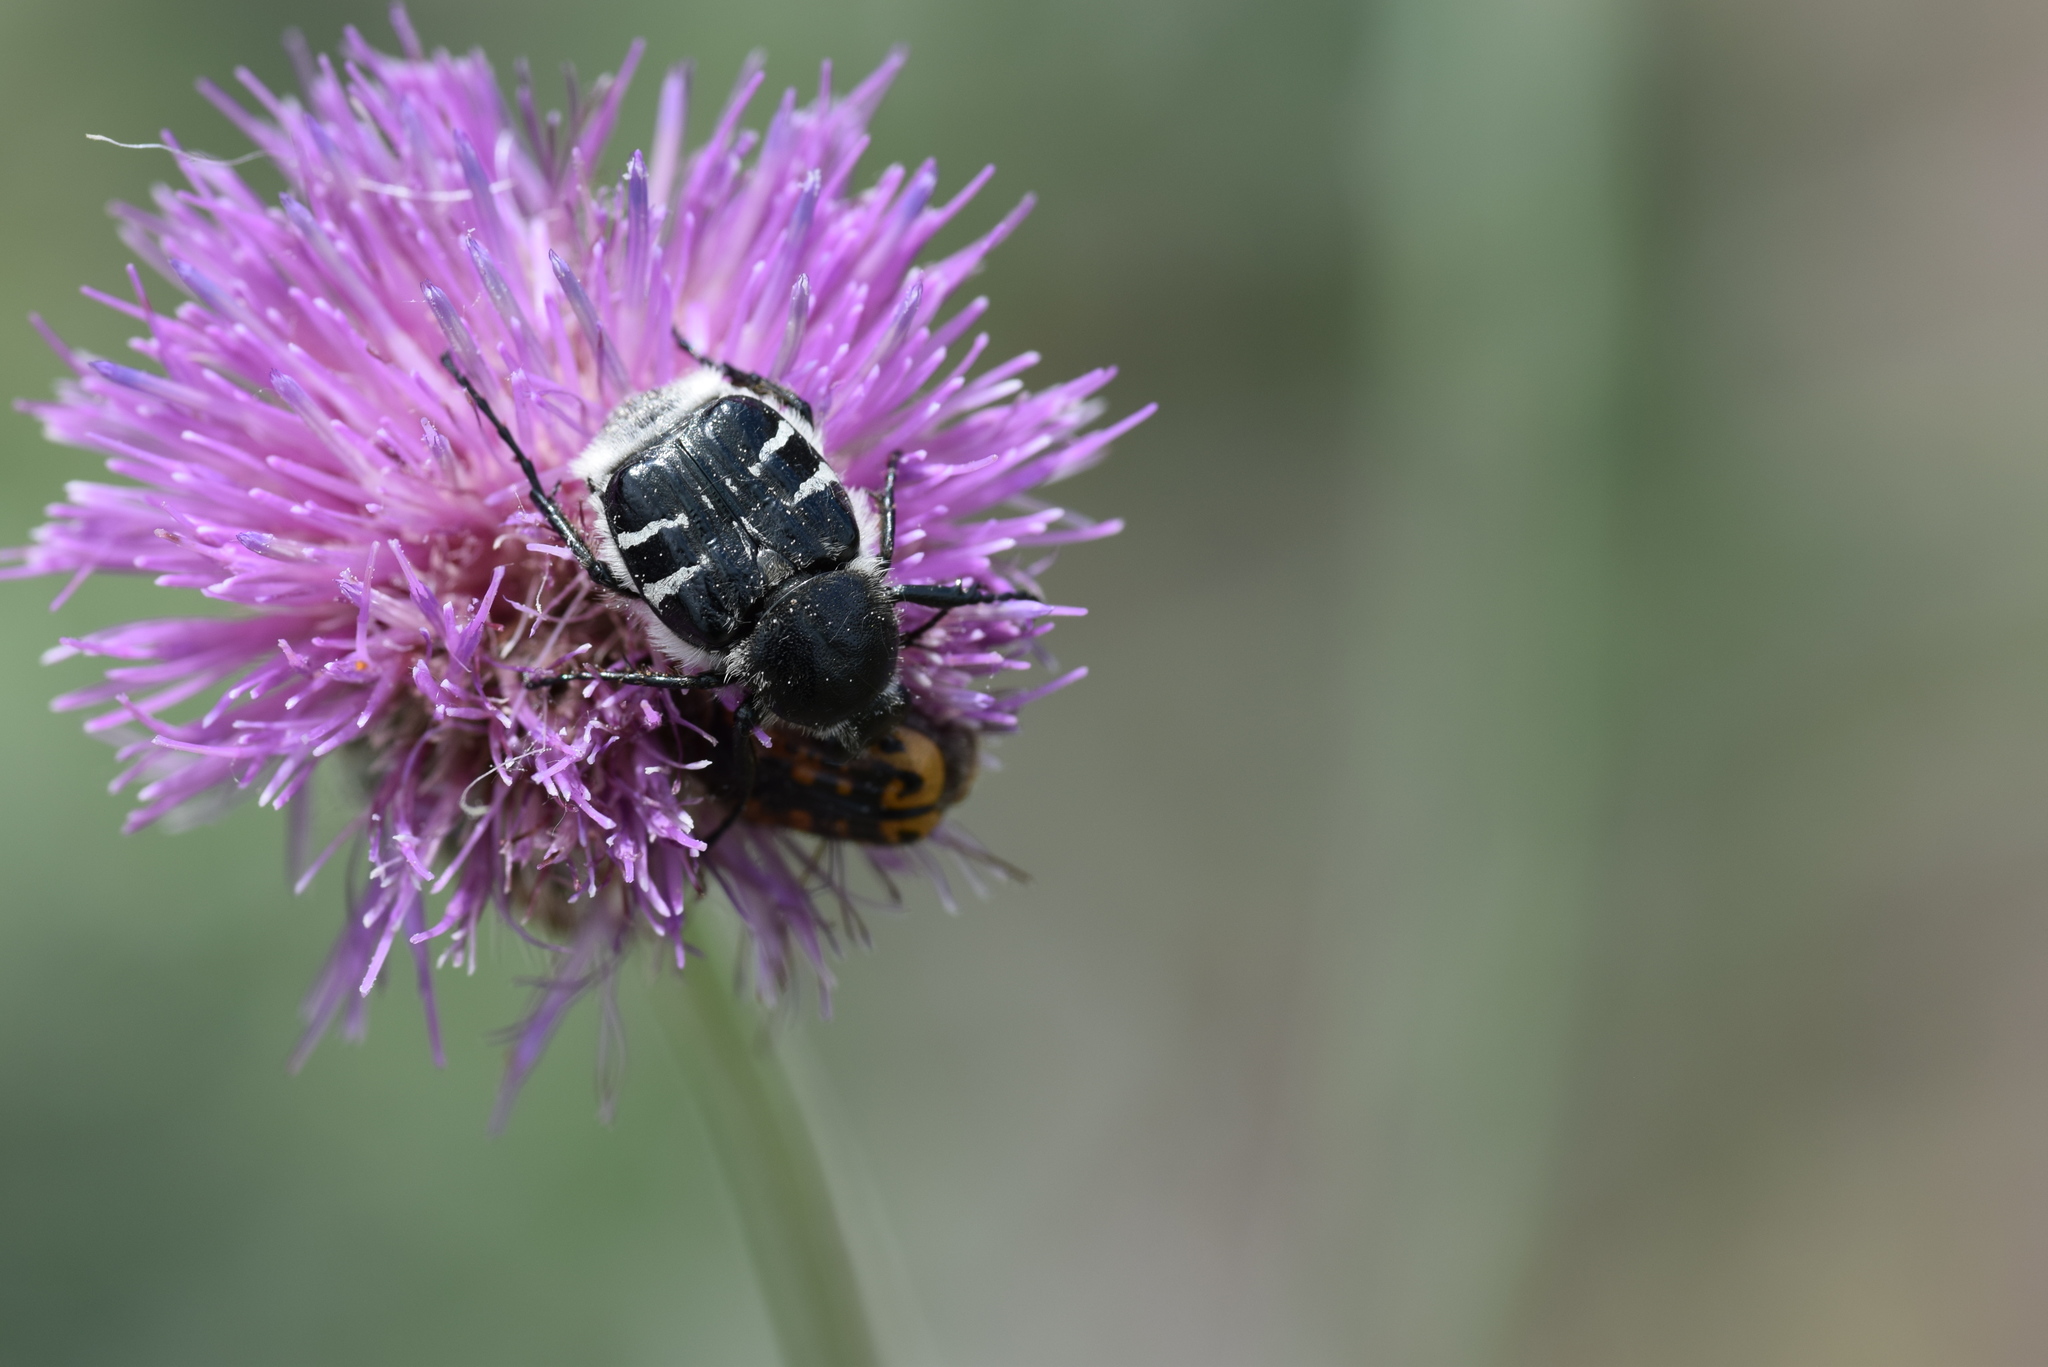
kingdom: Animalia
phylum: Arthropoda
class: Insecta
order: Coleoptera
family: Scarabaeidae
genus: Trichiotinus
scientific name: Trichiotinus texanus
